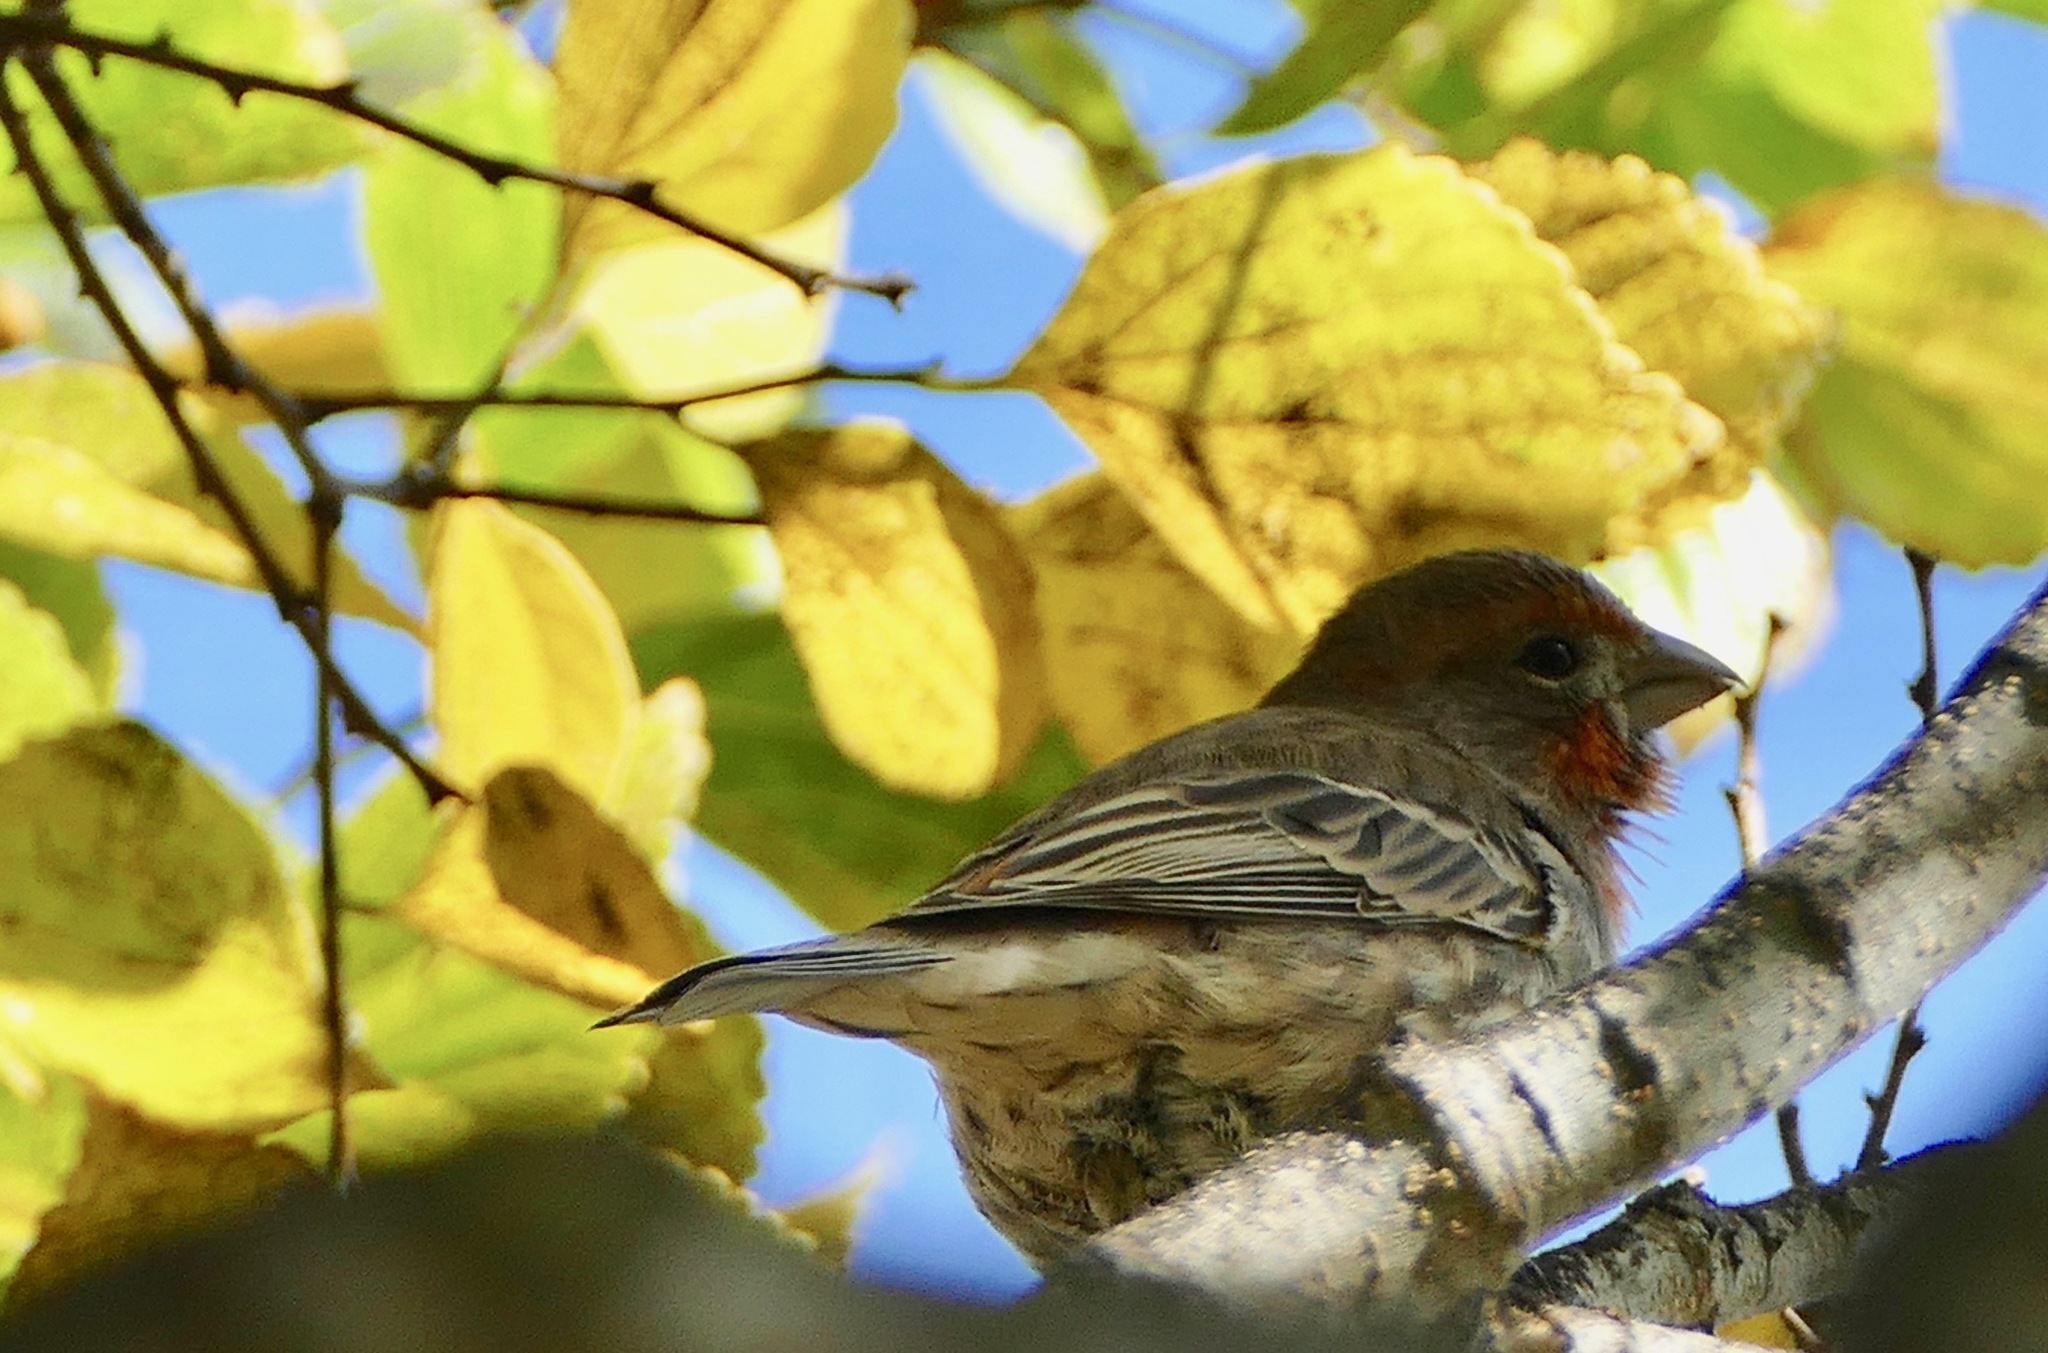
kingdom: Animalia
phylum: Chordata
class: Aves
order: Passeriformes
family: Fringillidae
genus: Haemorhous
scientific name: Haemorhous mexicanus
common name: House finch
